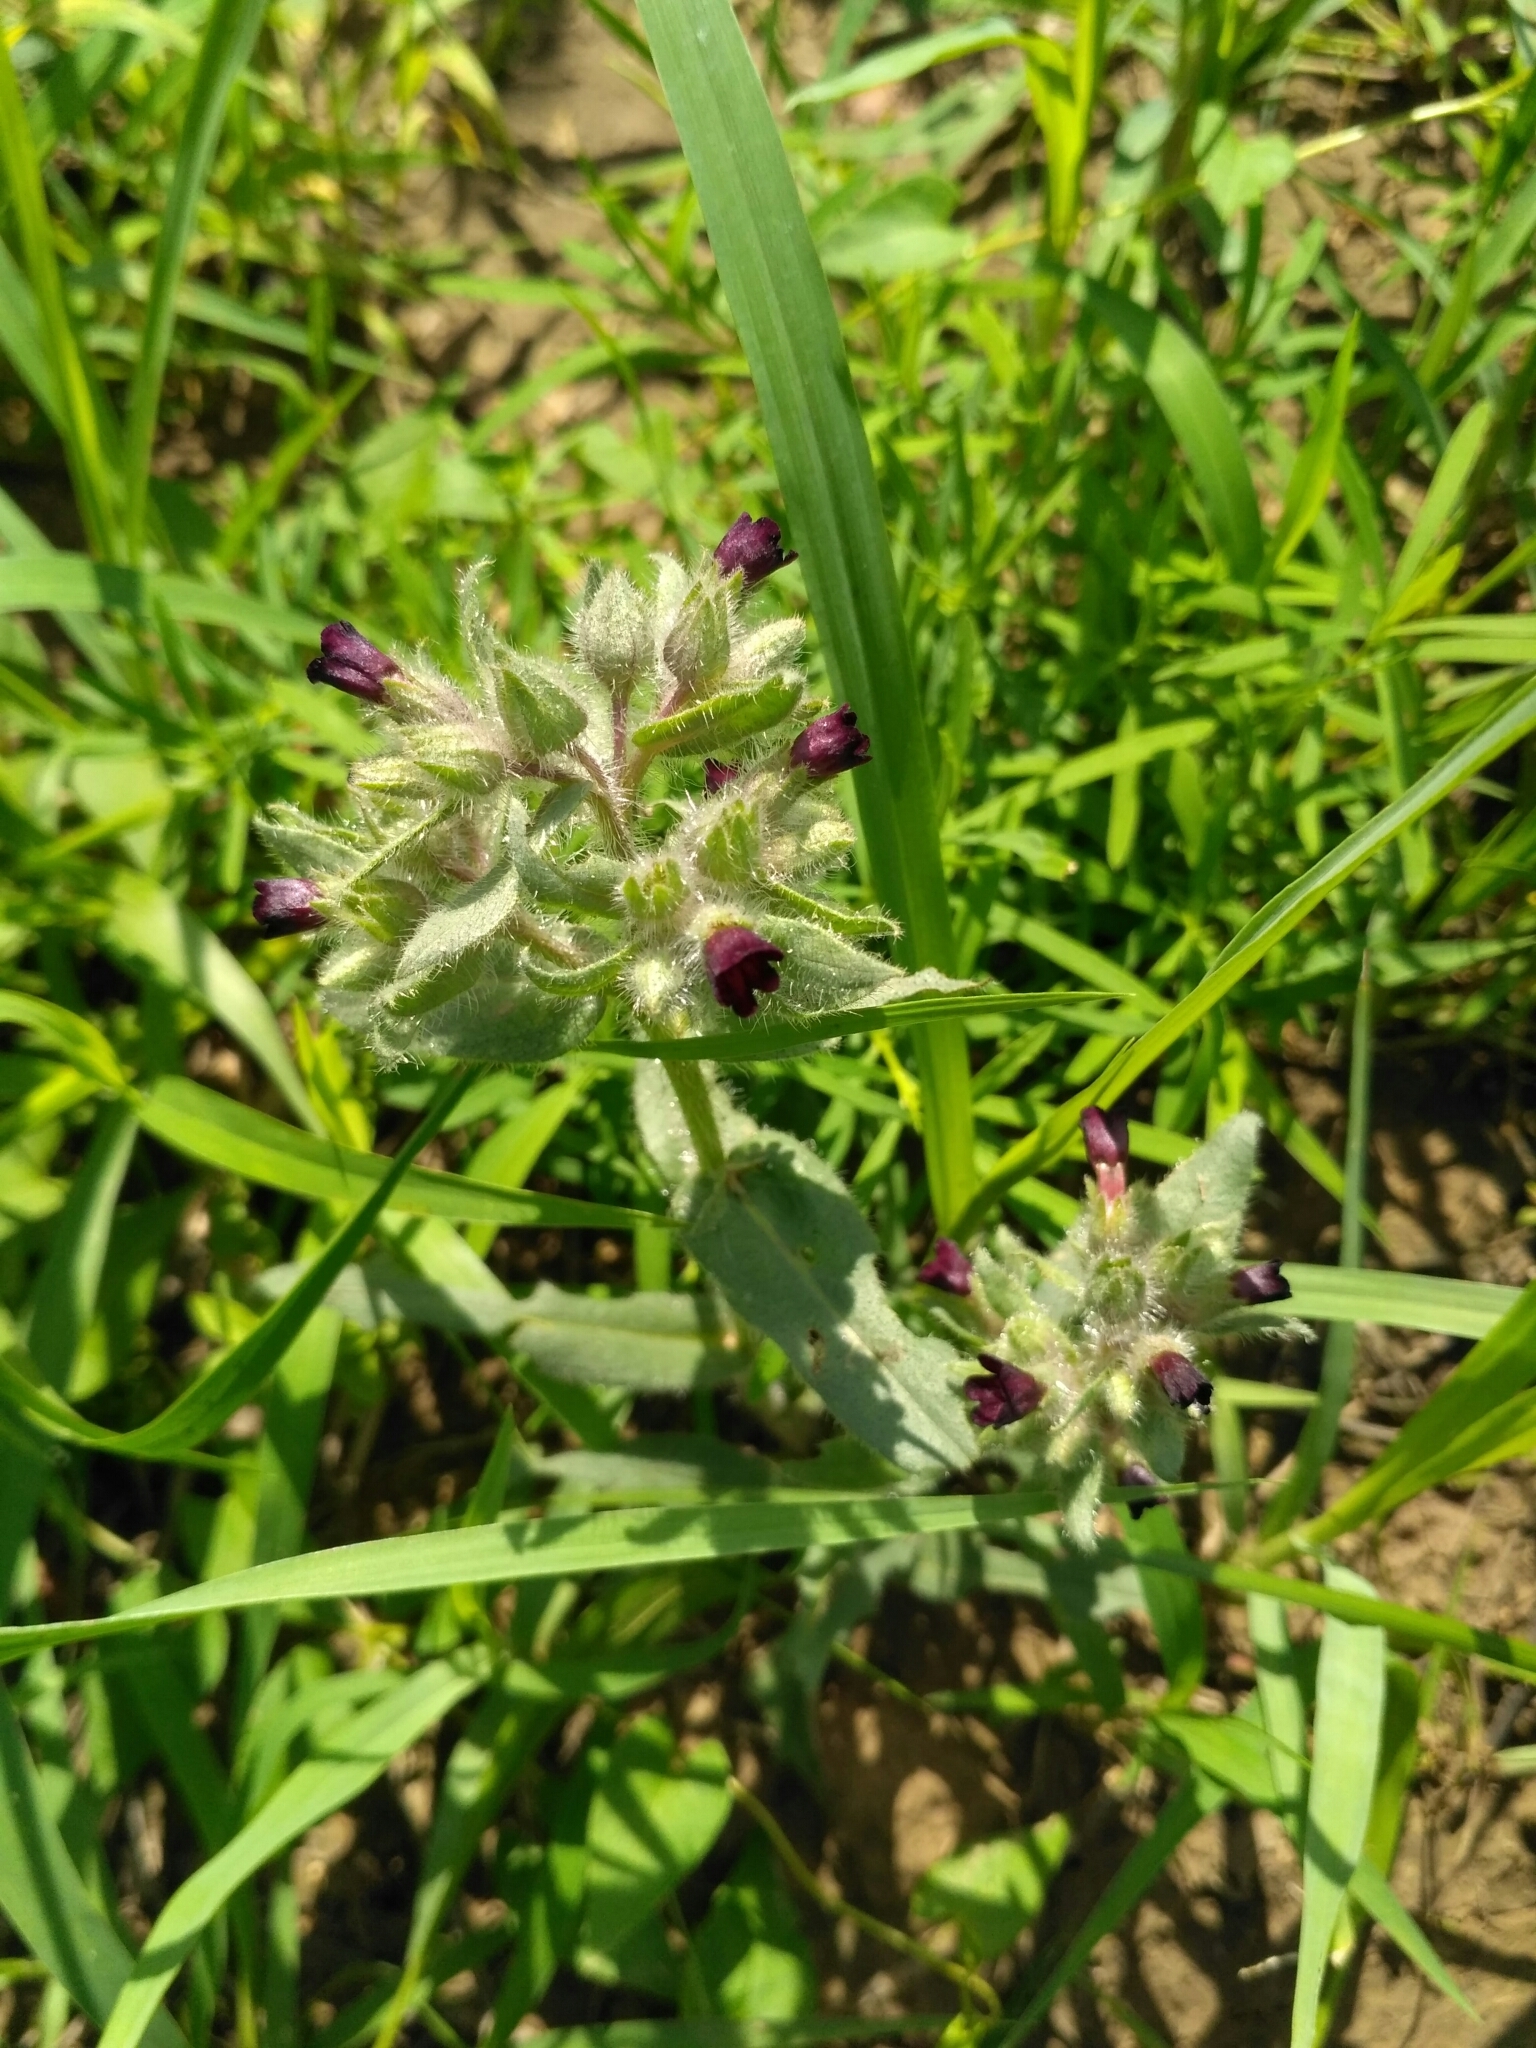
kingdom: Plantae
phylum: Tracheophyta
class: Magnoliopsida
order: Boraginales
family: Boraginaceae
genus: Nonea
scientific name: Nonea pulla
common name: Brown nonea
